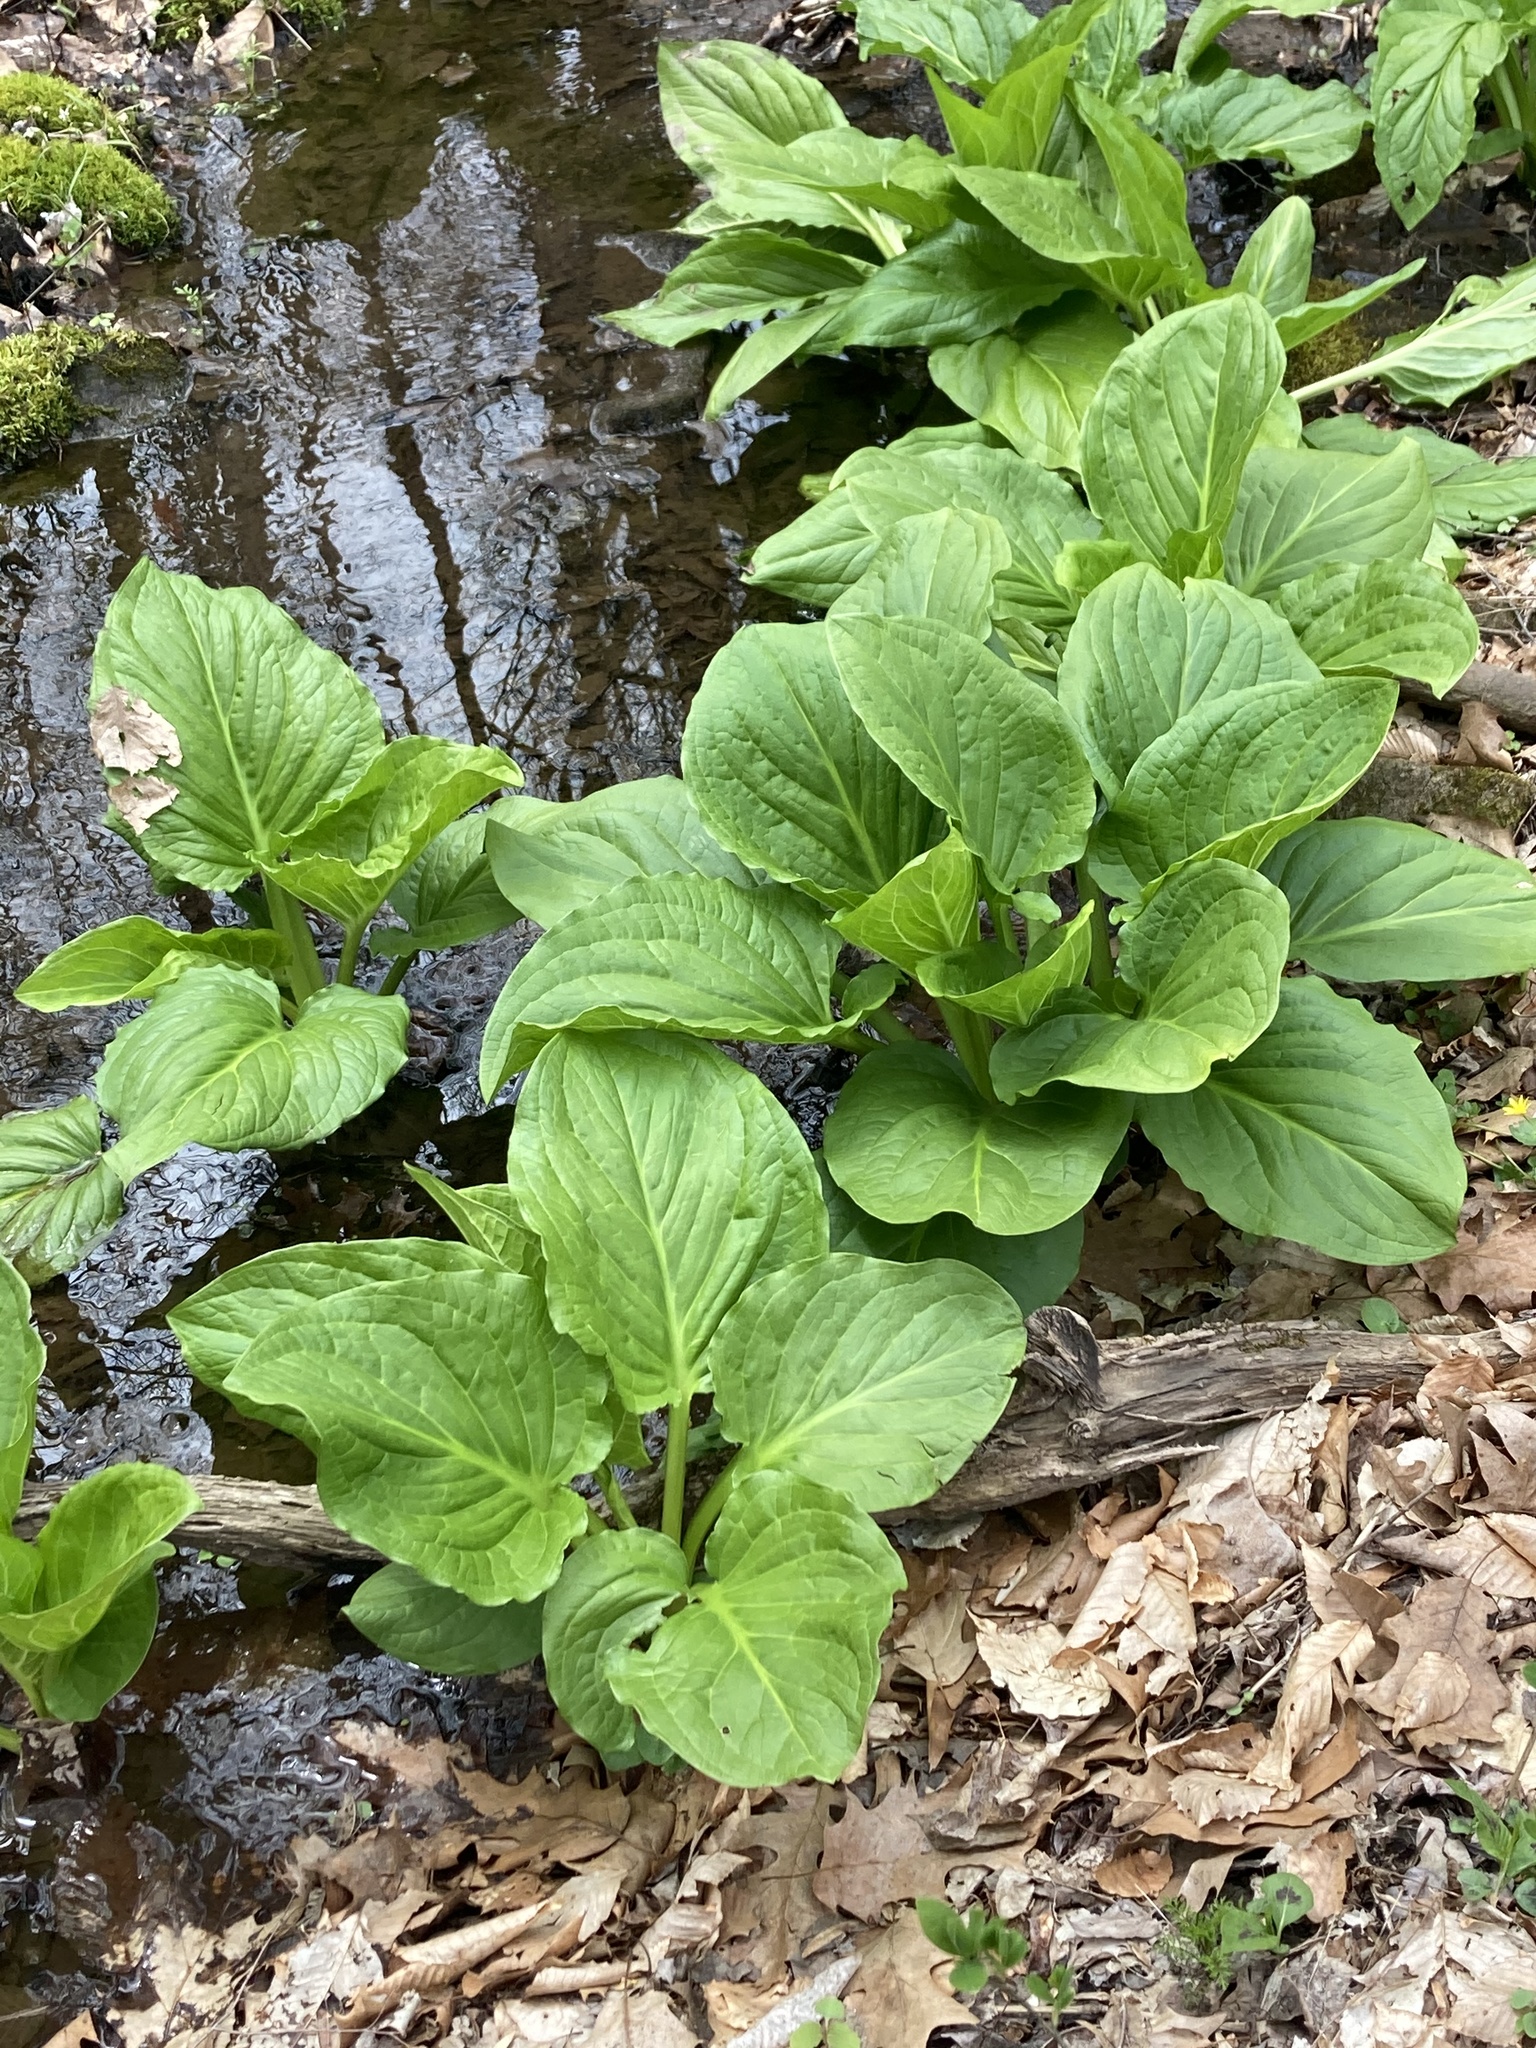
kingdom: Plantae
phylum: Tracheophyta
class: Liliopsida
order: Alismatales
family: Araceae
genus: Symplocarpus
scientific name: Symplocarpus foetidus
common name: Eastern skunk cabbage
